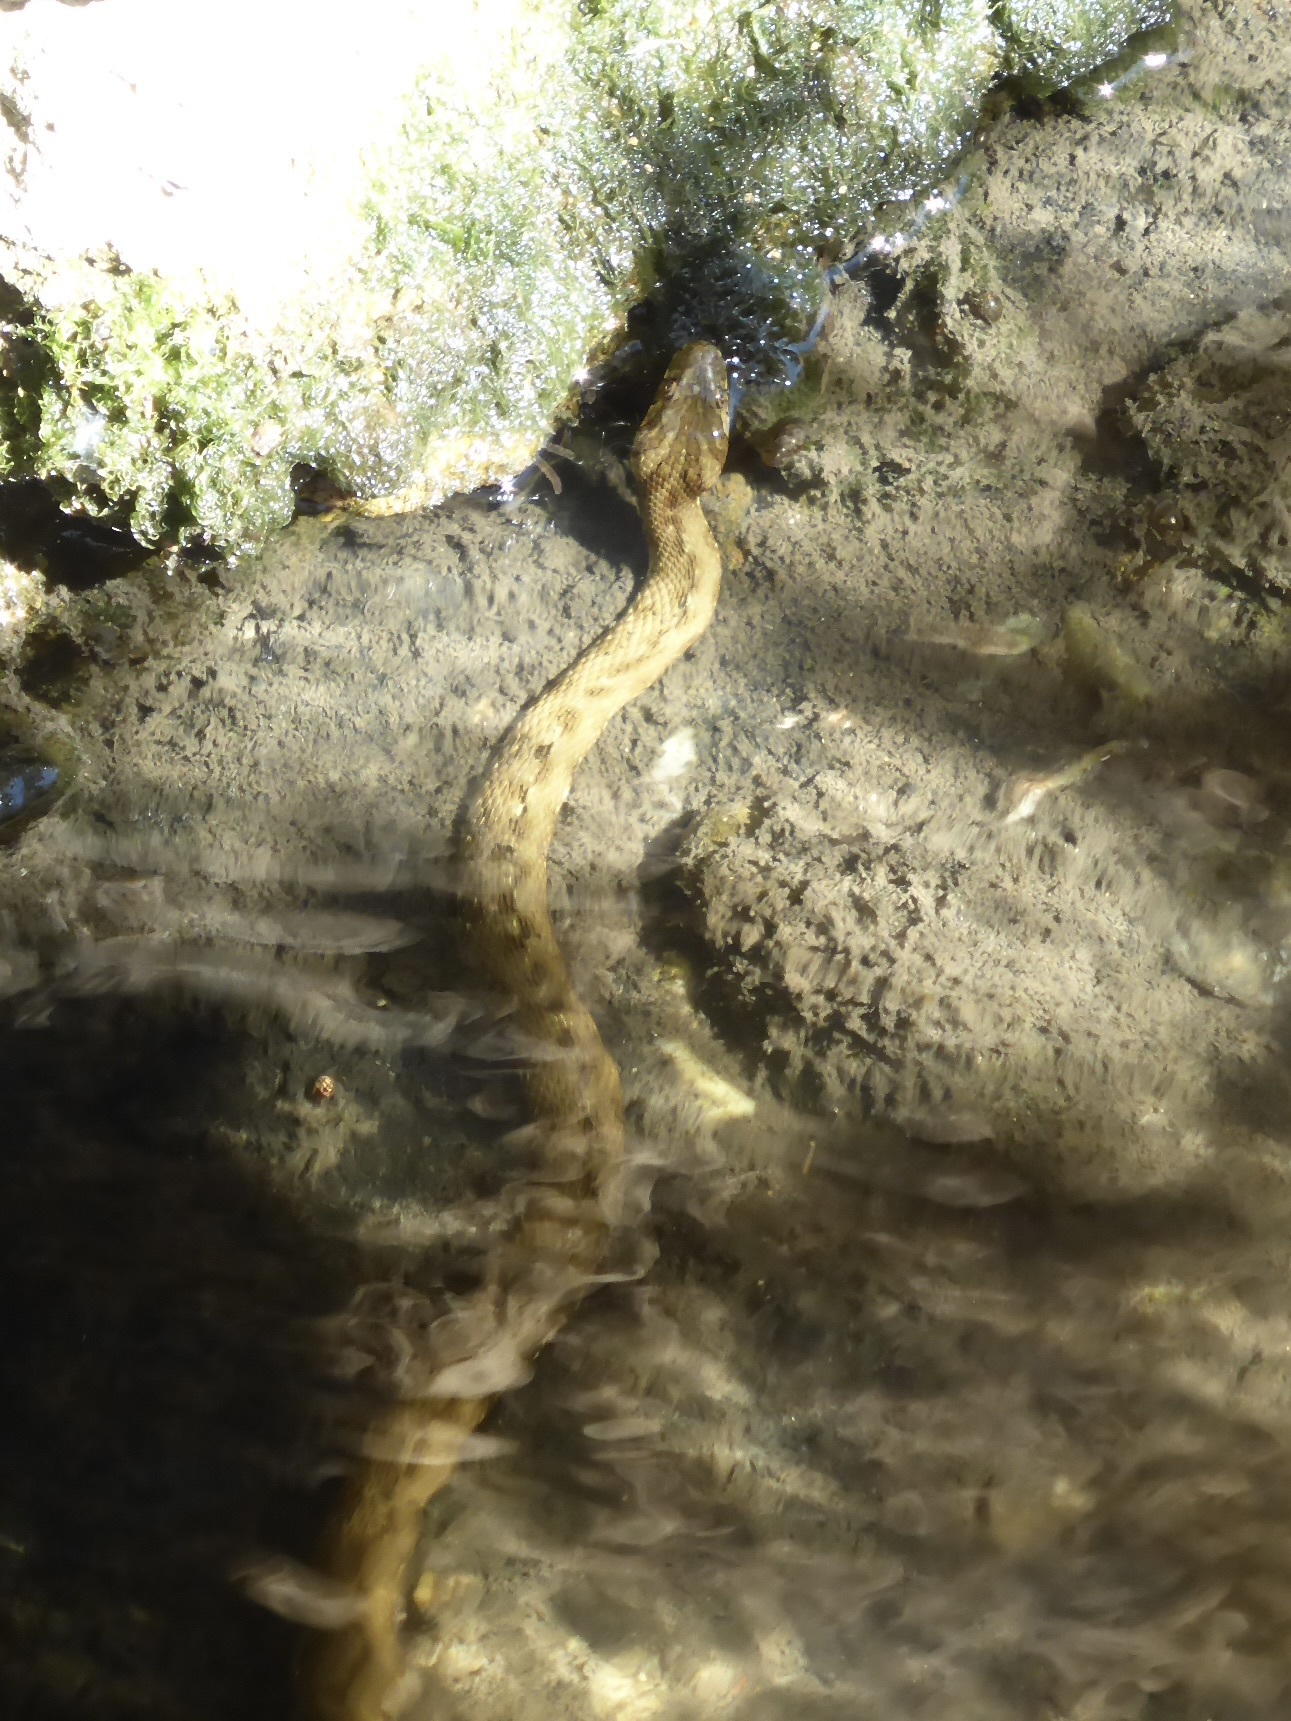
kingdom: Animalia
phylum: Chordata
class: Squamata
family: Colubridae
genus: Natrix
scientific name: Natrix maura
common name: Viperine water snake
